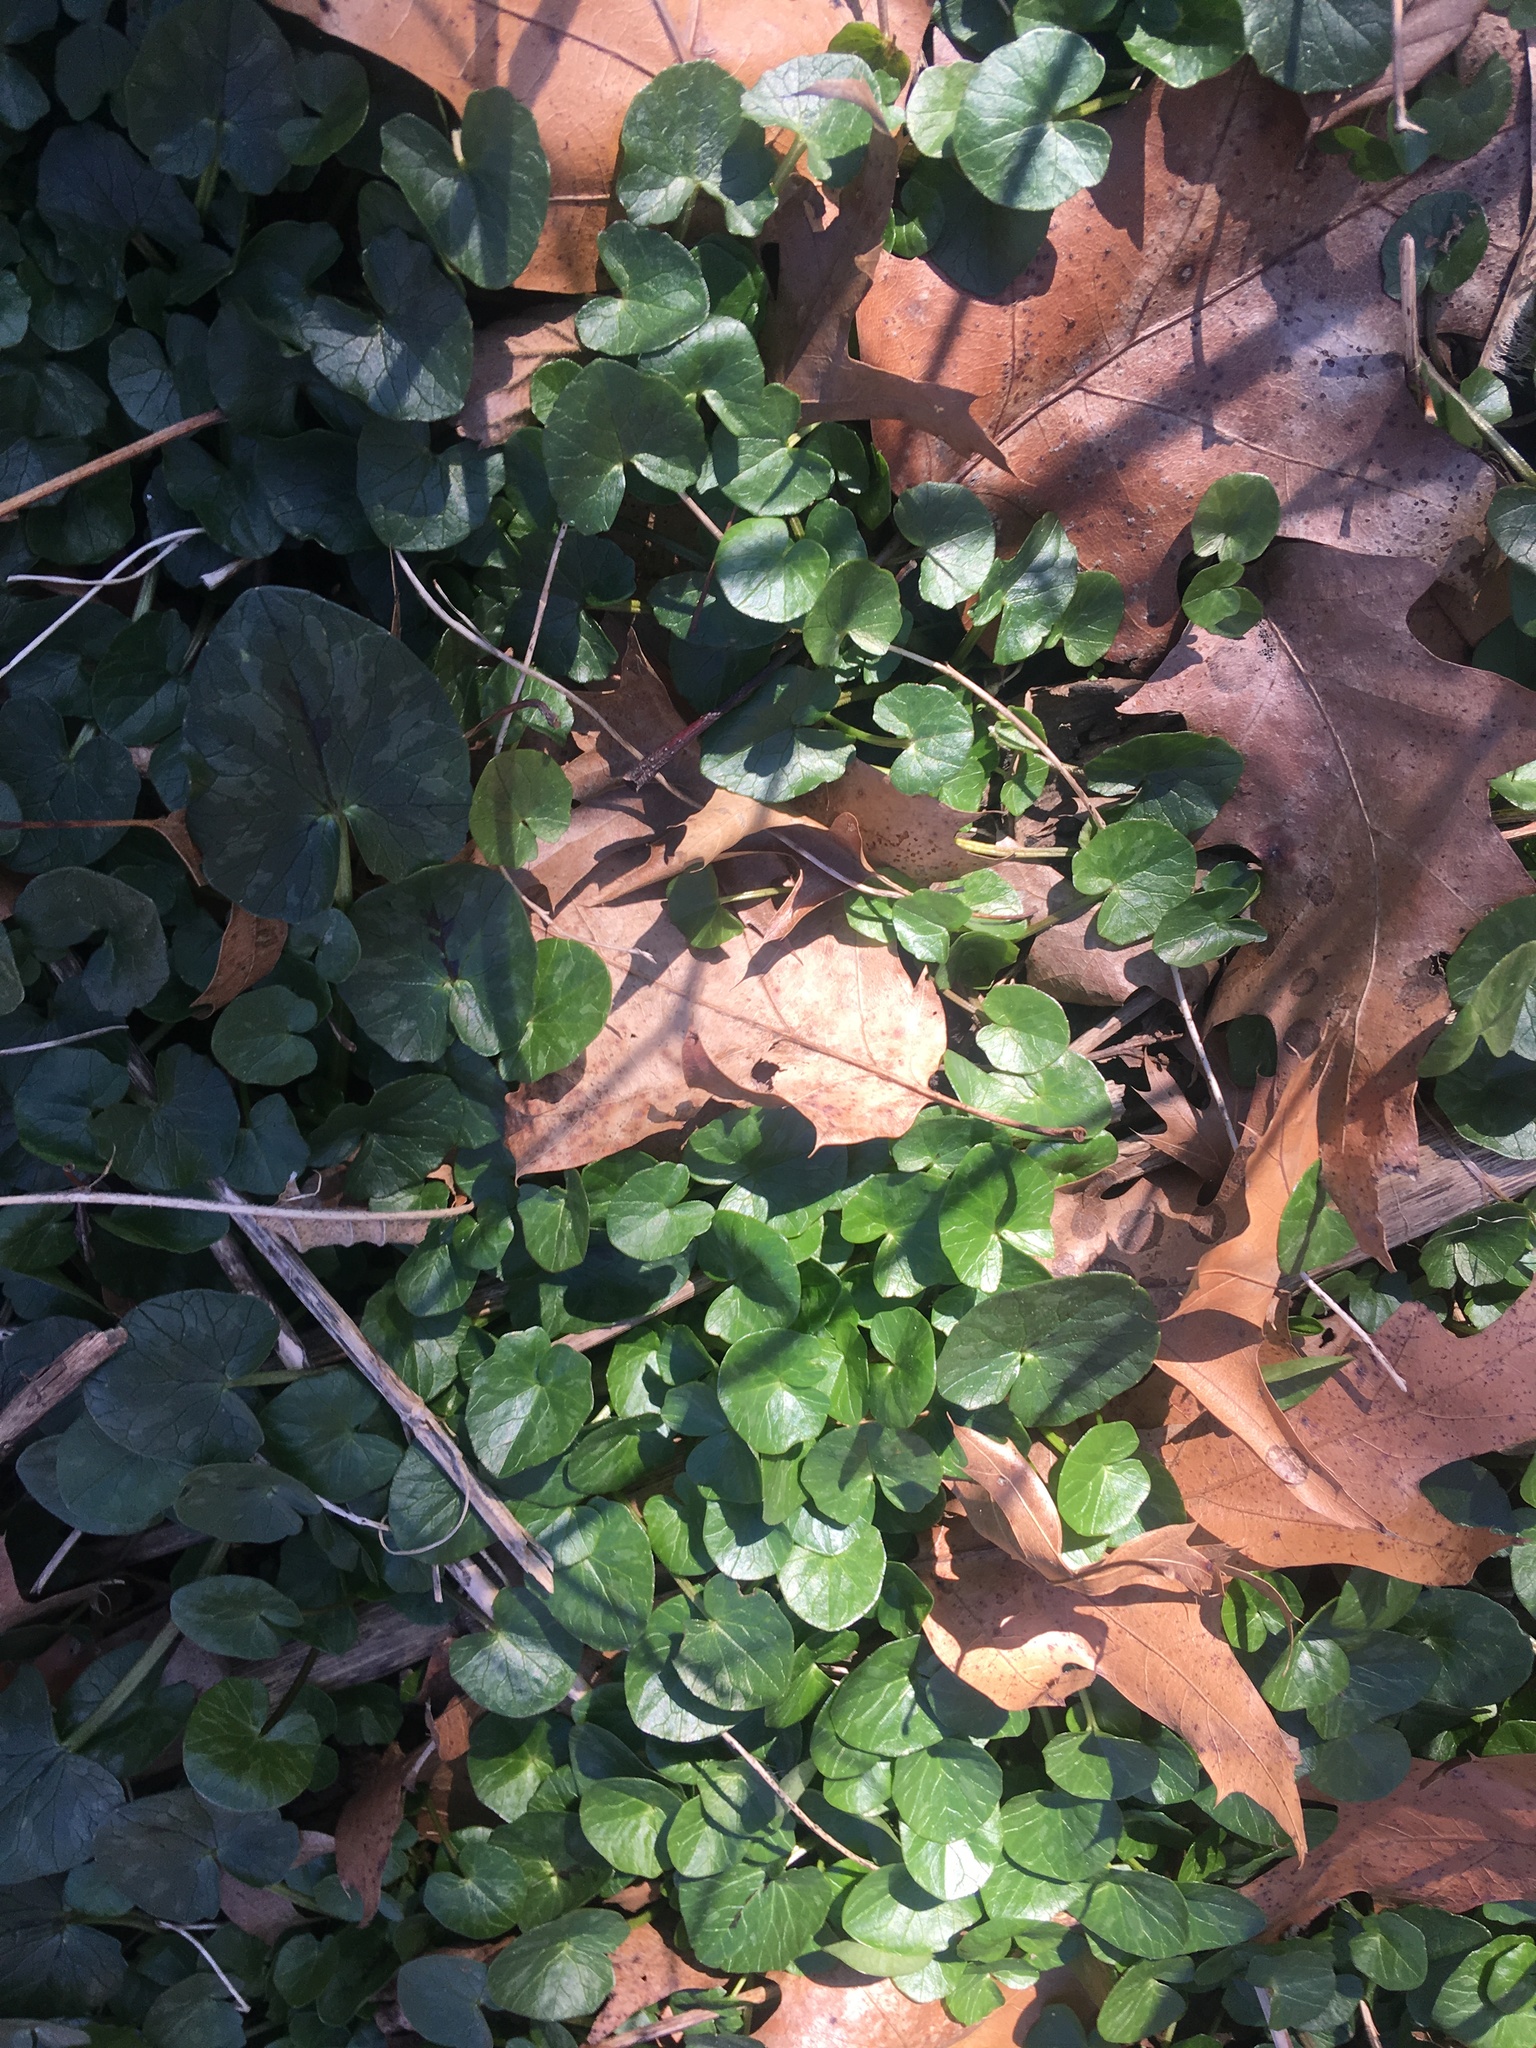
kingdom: Plantae
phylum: Tracheophyta
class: Magnoliopsida
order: Ranunculales
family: Ranunculaceae
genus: Ficaria
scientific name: Ficaria verna
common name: Lesser celandine
